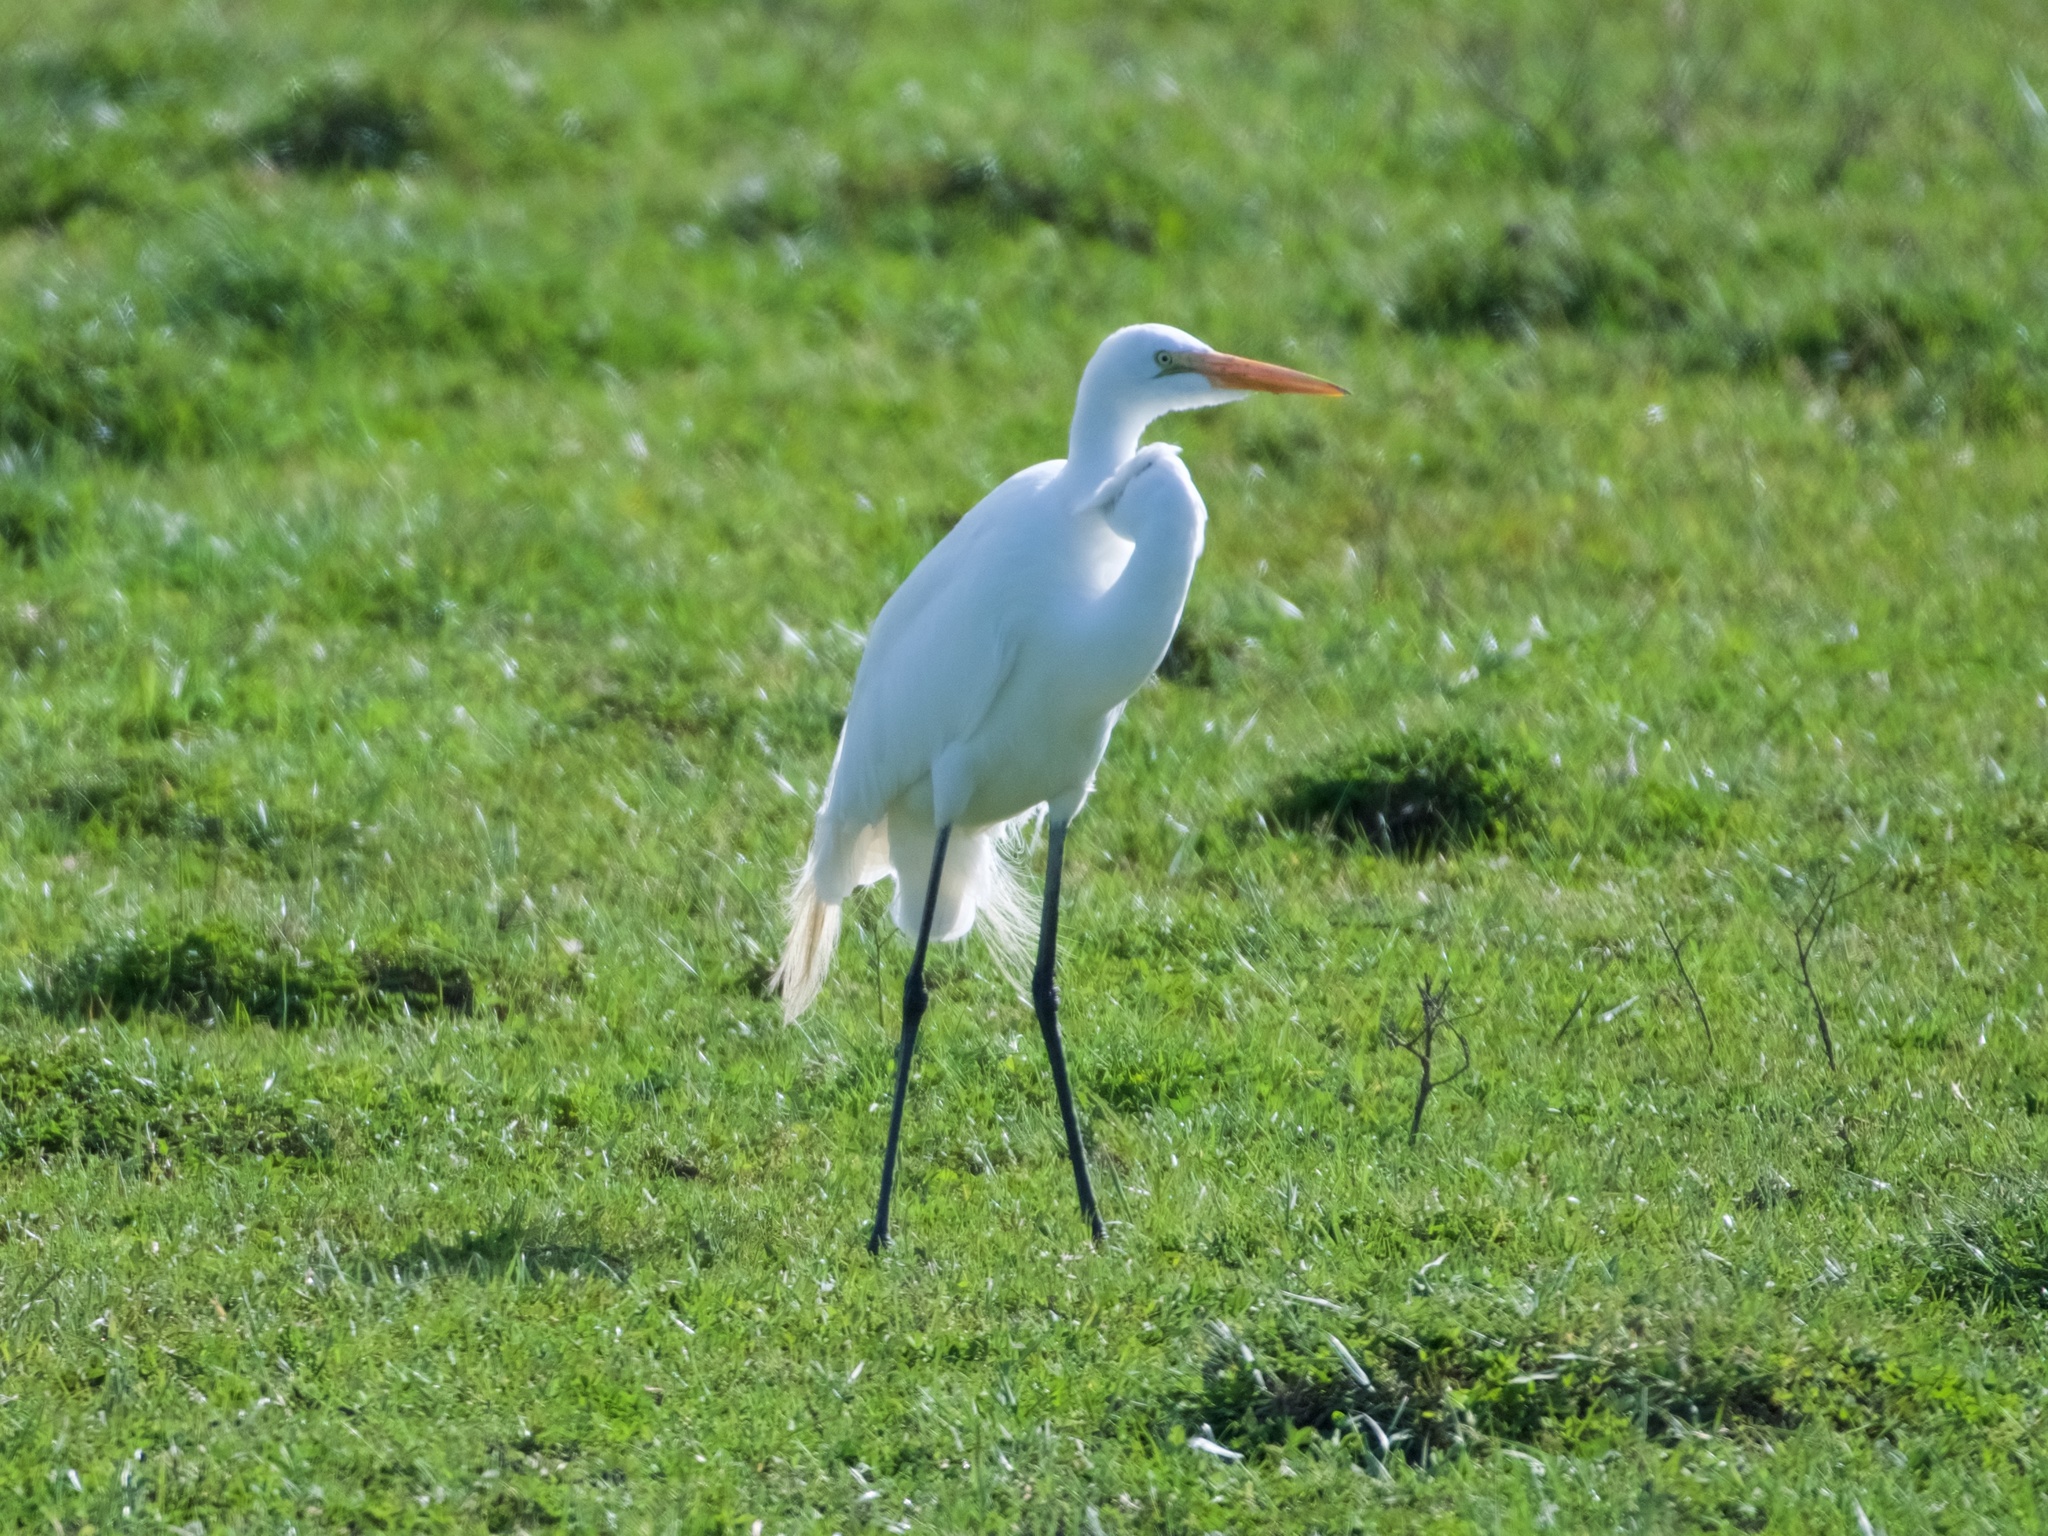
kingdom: Animalia
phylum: Chordata
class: Aves
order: Pelecaniformes
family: Ardeidae
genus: Ardea
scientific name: Ardea alba
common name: Great egret
